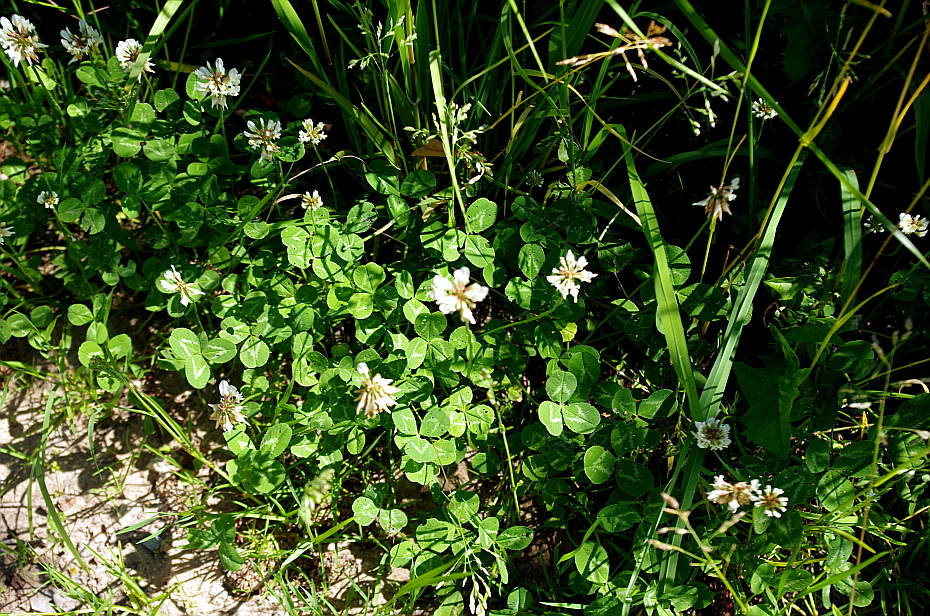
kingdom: Plantae
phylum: Tracheophyta
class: Magnoliopsida
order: Fabales
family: Fabaceae
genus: Trifolium
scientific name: Trifolium repens
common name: White clover
